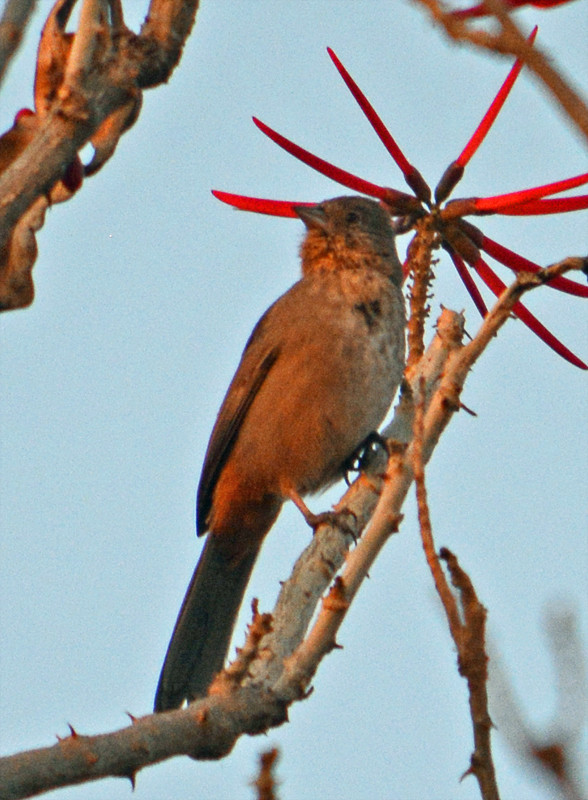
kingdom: Animalia
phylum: Chordata
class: Aves
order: Passeriformes
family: Passerellidae
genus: Melozone
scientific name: Melozone fusca
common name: Canyon towhee
